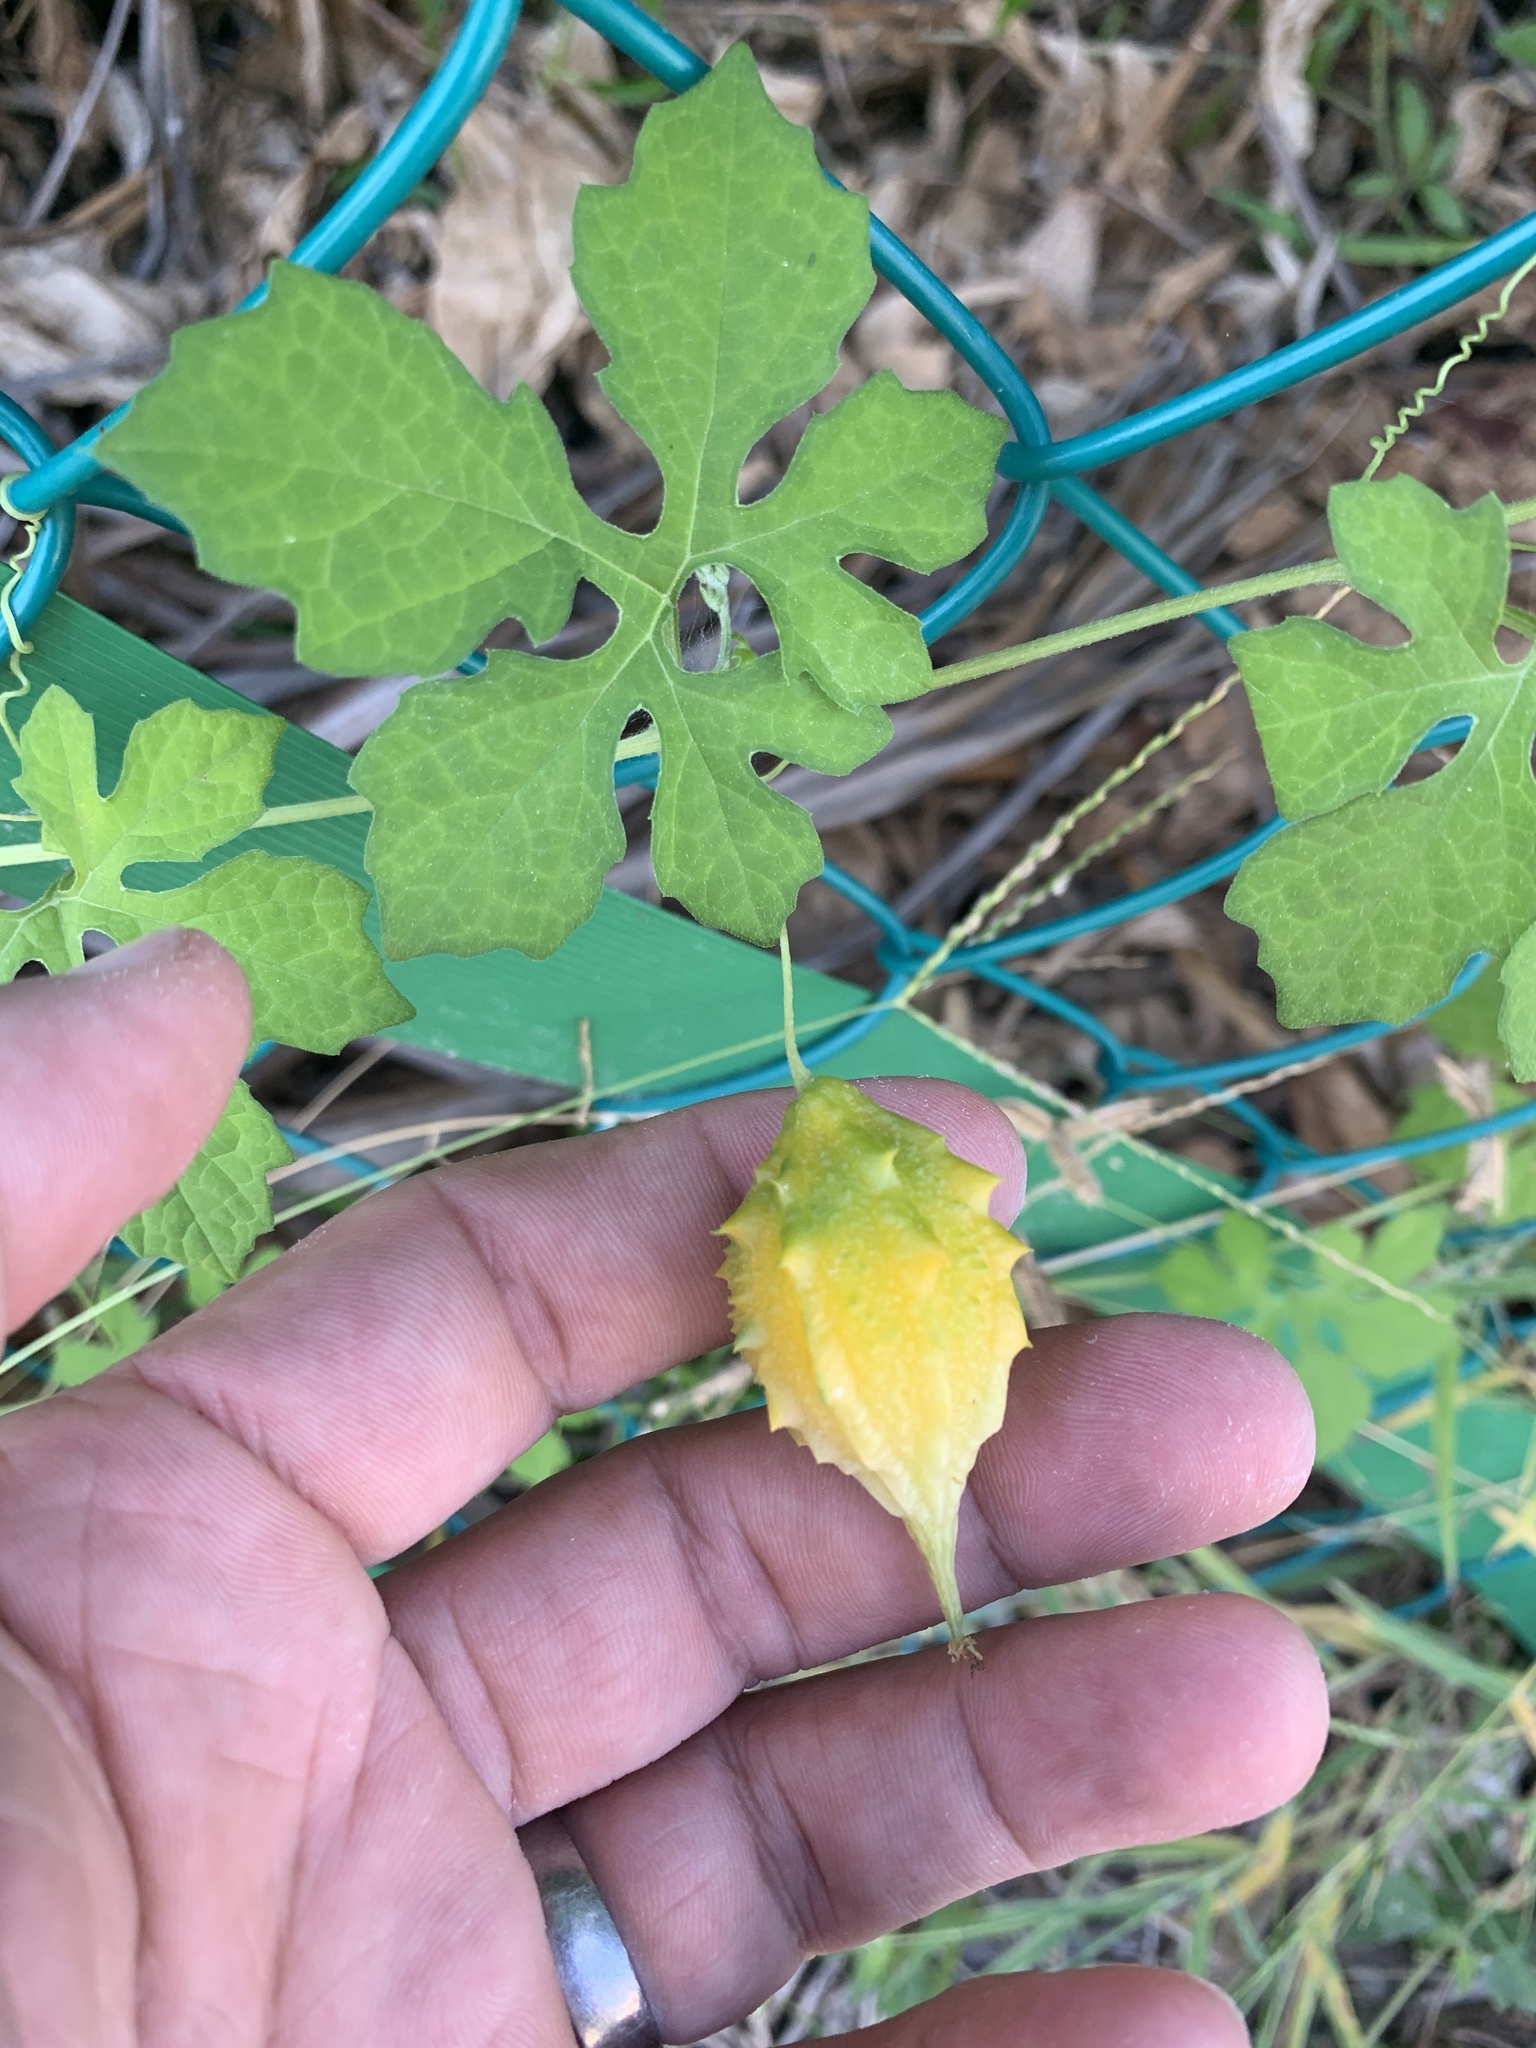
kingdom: Plantae
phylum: Tracheophyta
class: Magnoliopsida
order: Cucurbitales
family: Cucurbitaceae
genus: Momordica
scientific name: Momordica charantia
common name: Balsampear
